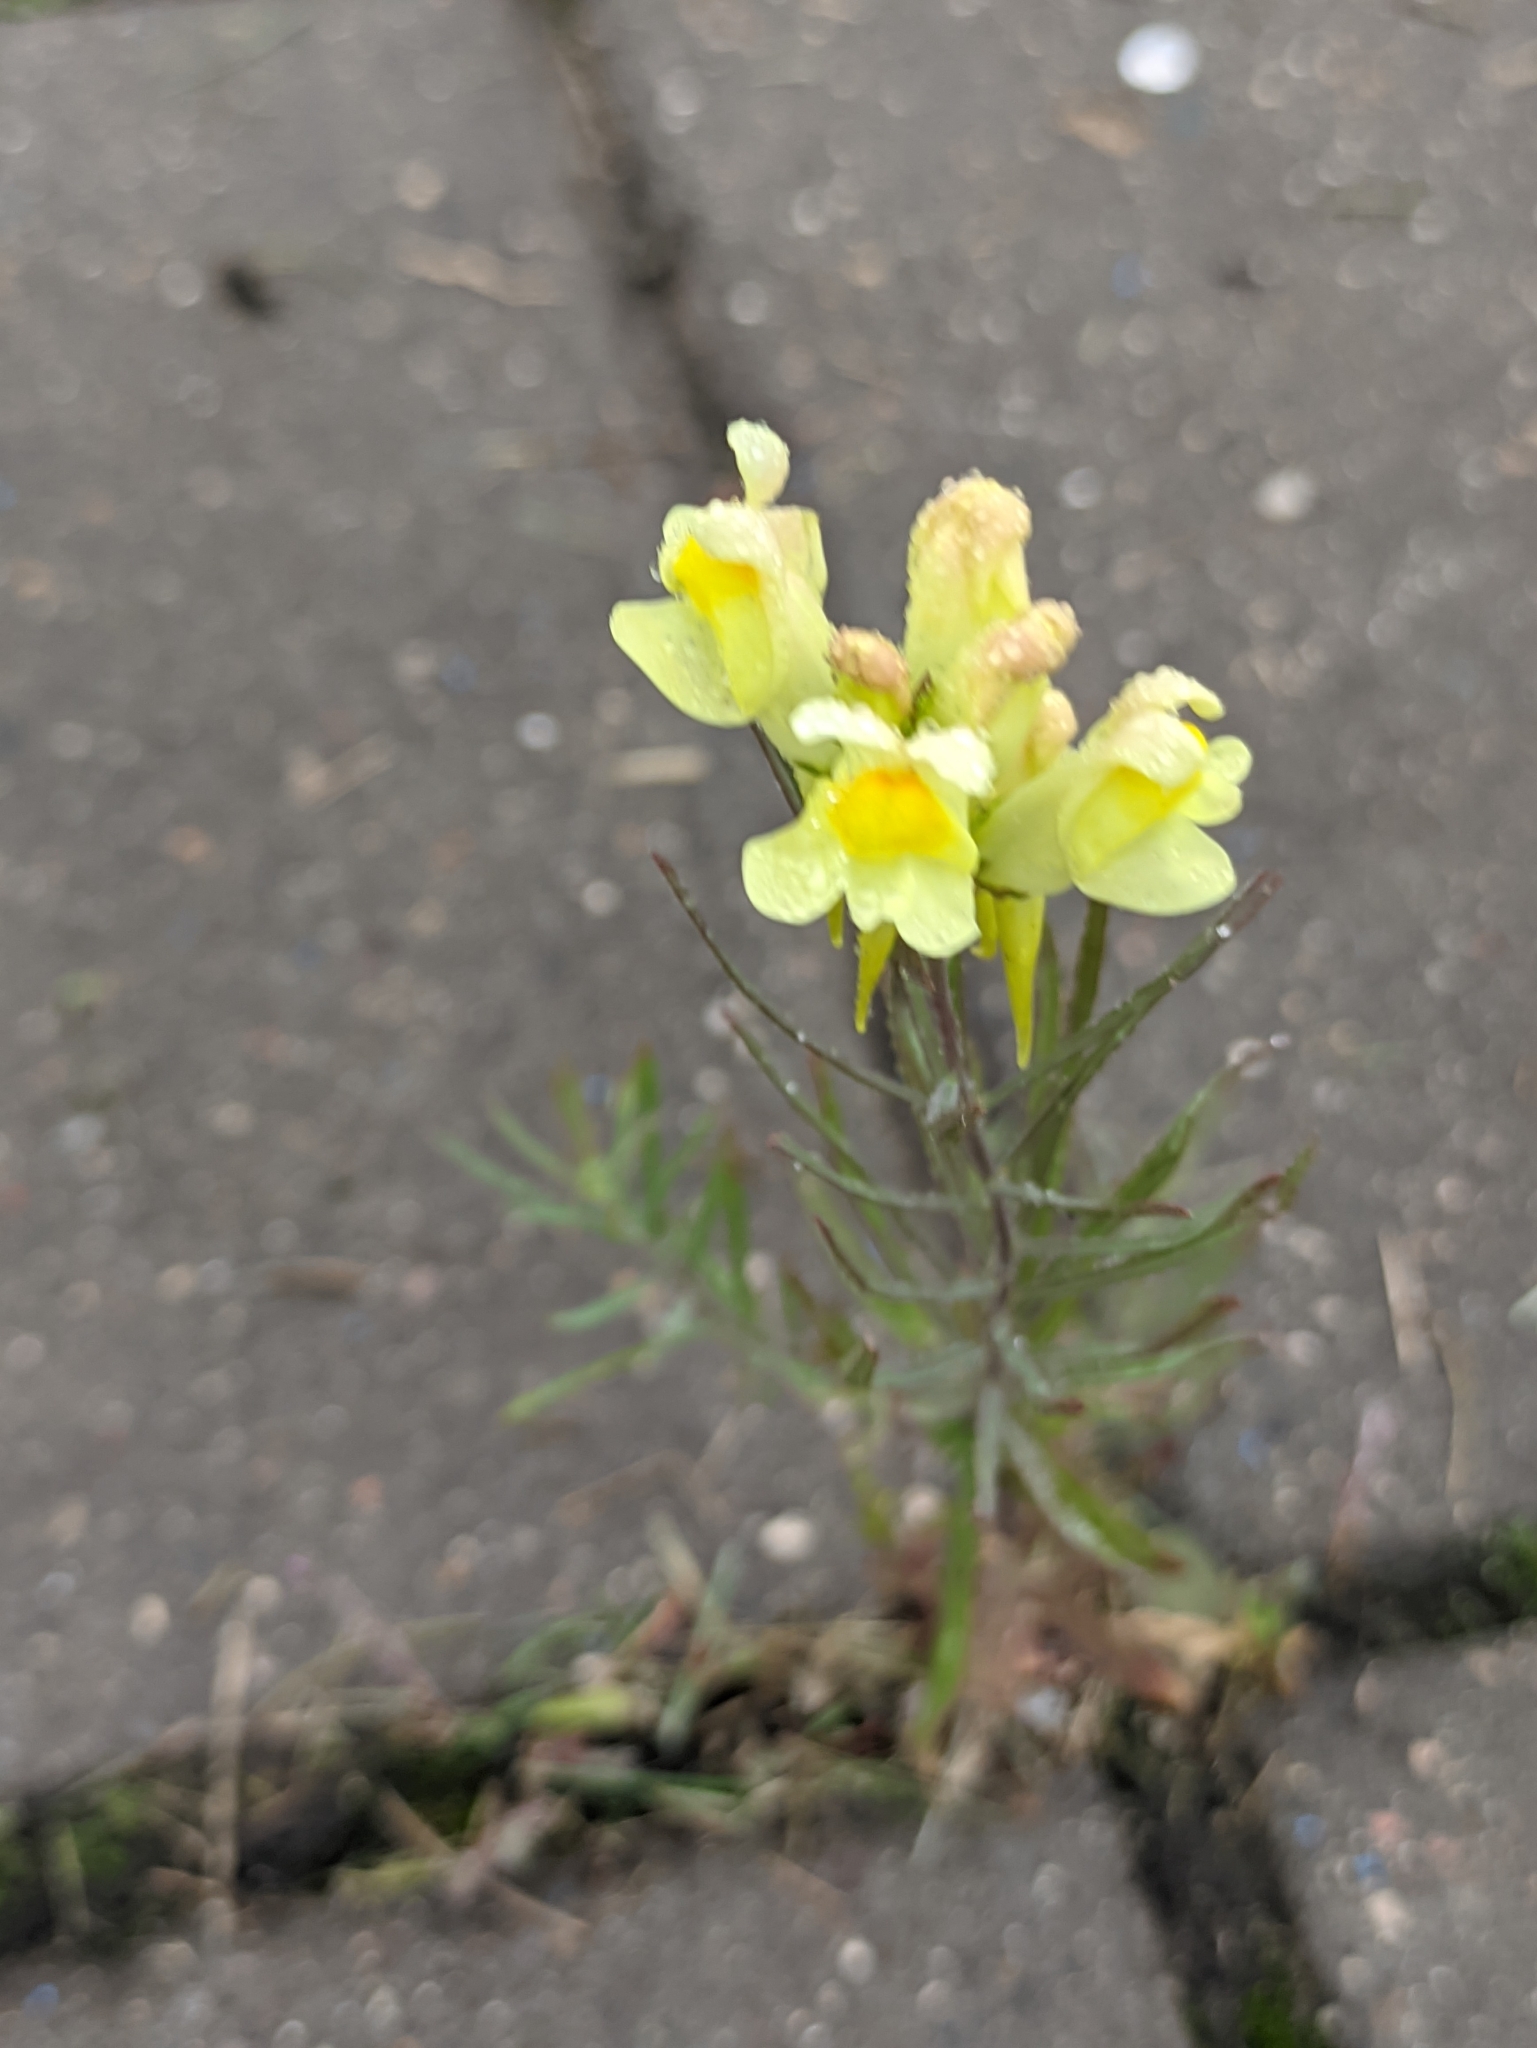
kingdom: Plantae
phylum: Tracheophyta
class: Magnoliopsida
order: Lamiales
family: Plantaginaceae
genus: Linaria
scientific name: Linaria vulgaris
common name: Butter and eggs
